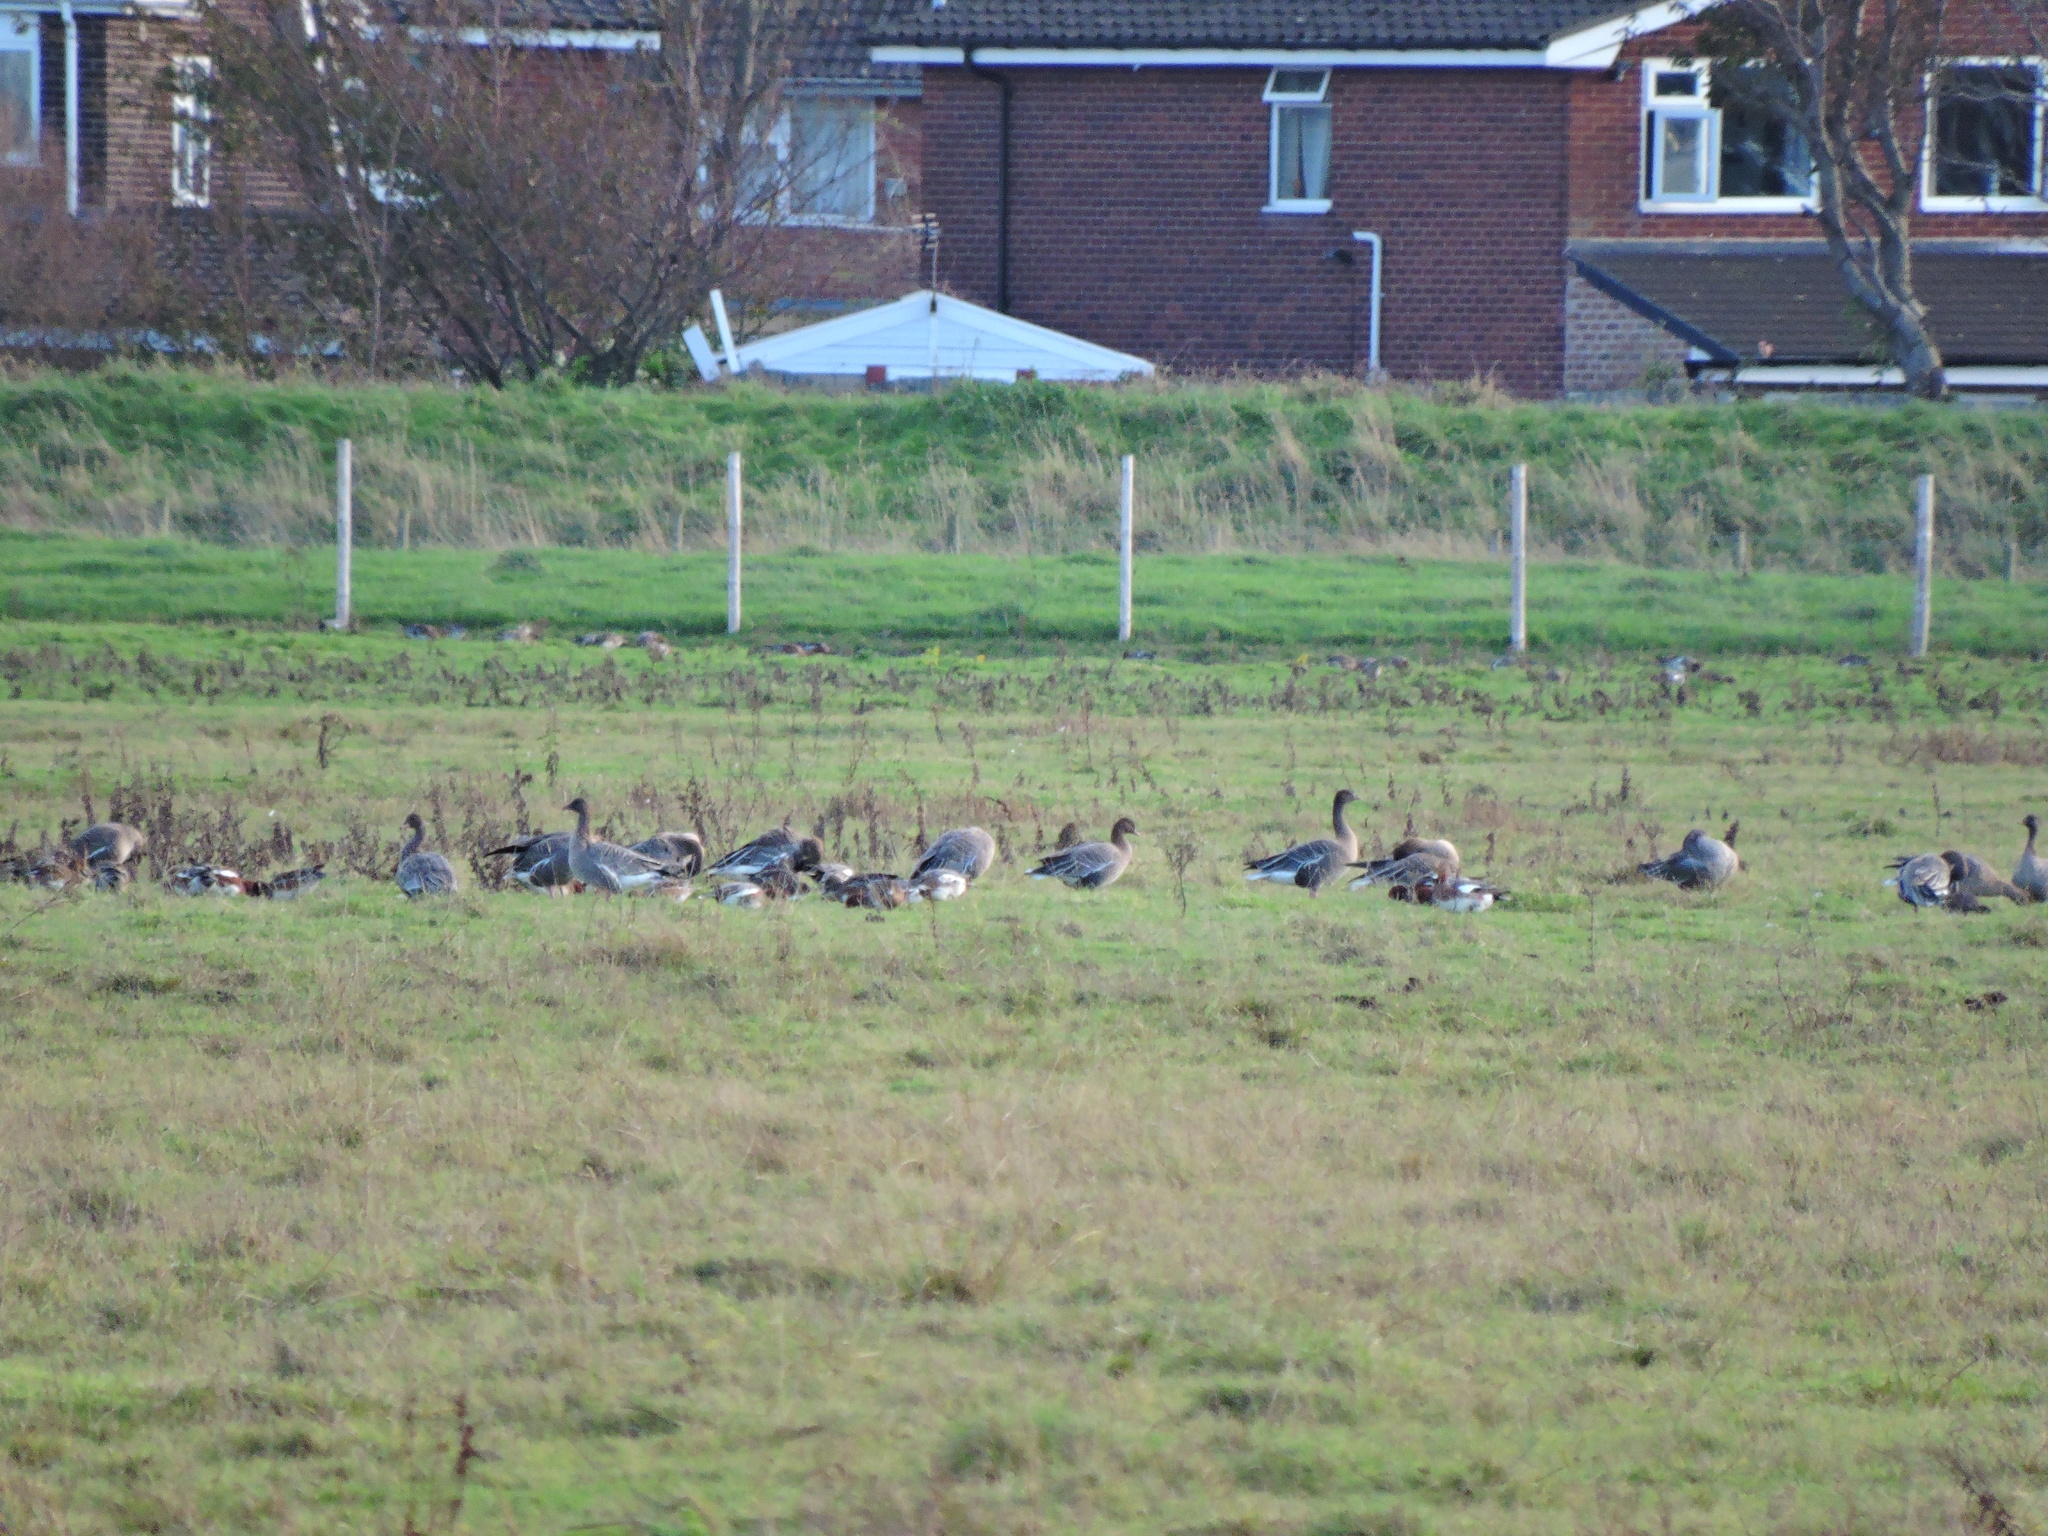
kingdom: Animalia
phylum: Chordata
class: Aves
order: Anseriformes
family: Anatidae
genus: Anser
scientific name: Anser brachyrhynchus
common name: Pink-footed goose
